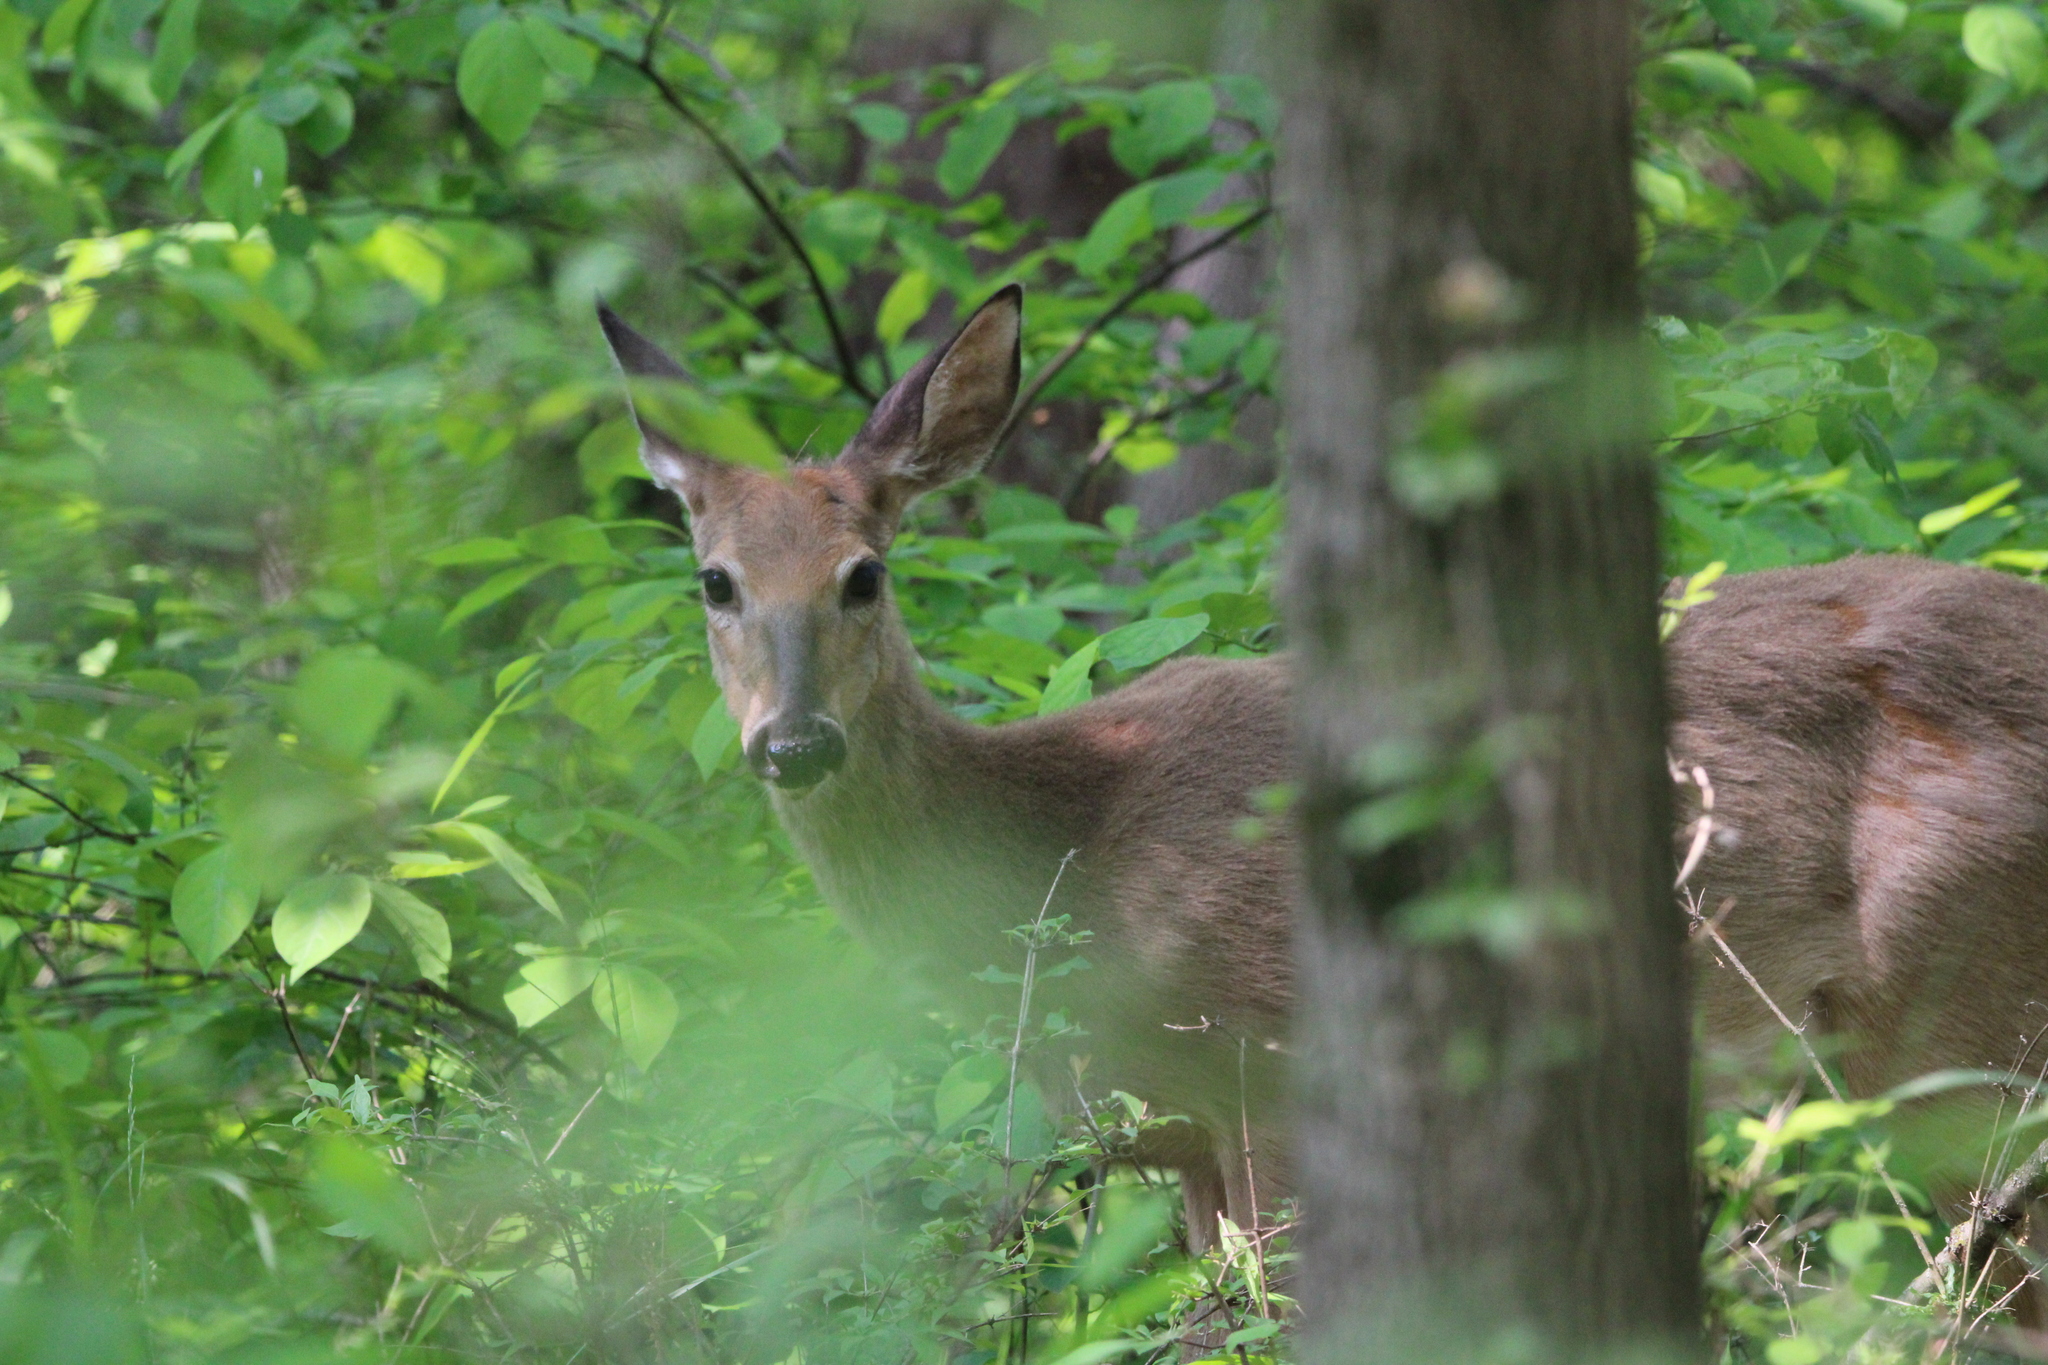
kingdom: Animalia
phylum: Chordata
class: Mammalia
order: Artiodactyla
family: Cervidae
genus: Odocoileus
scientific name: Odocoileus virginianus
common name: White-tailed deer
